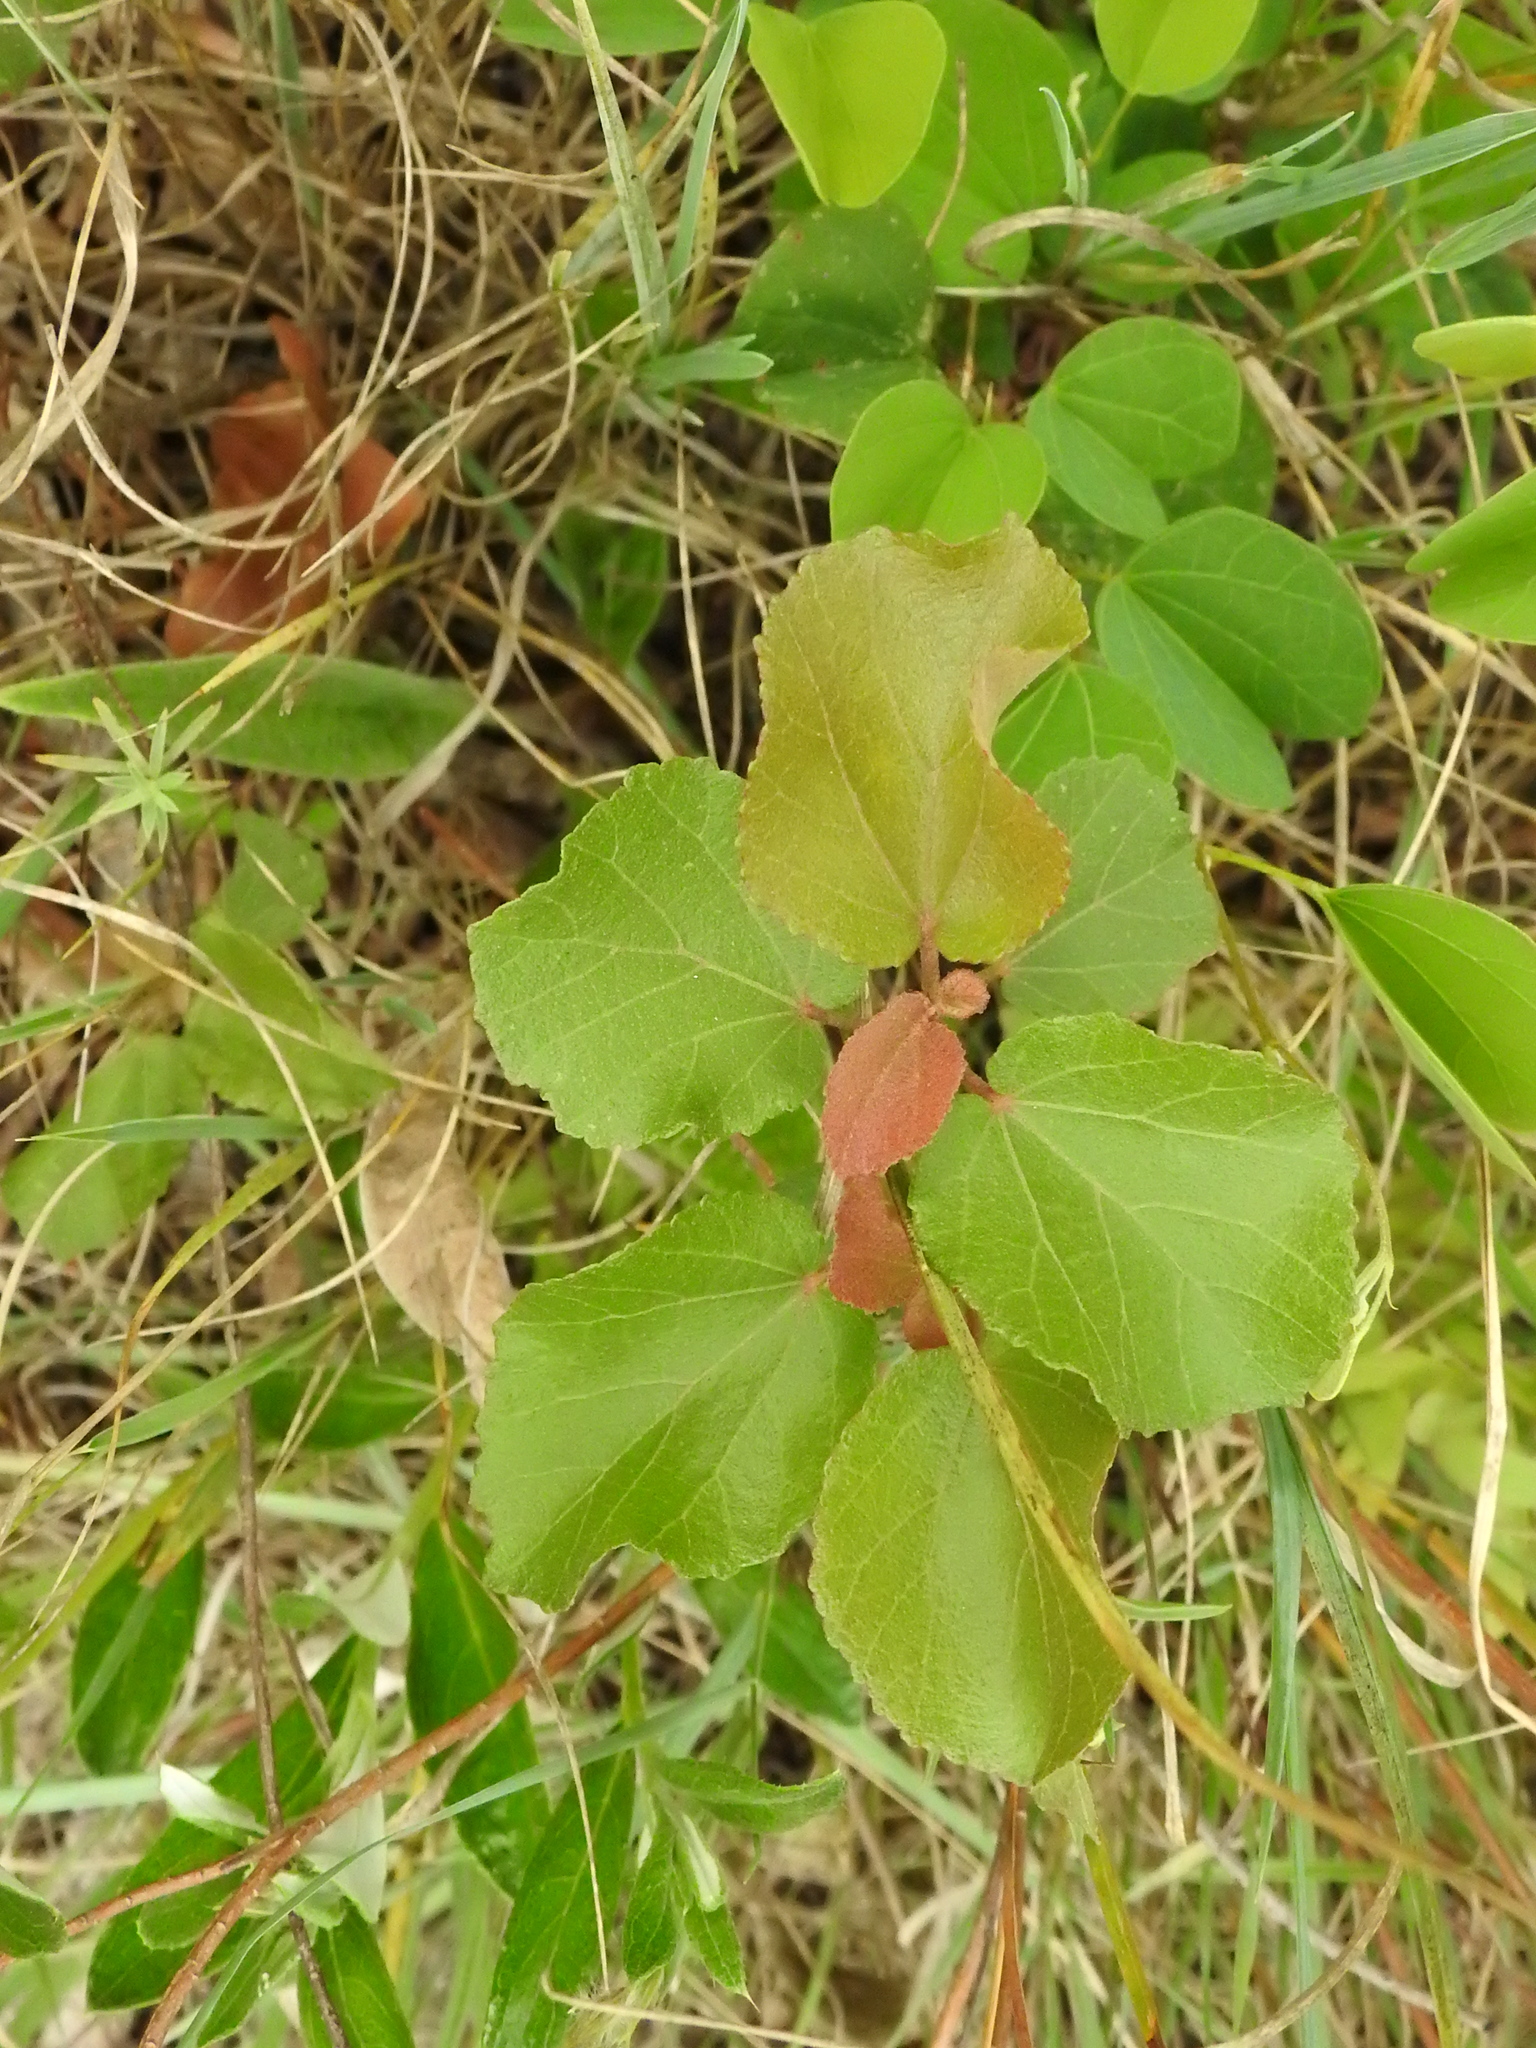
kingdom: Plantae
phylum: Tracheophyta
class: Magnoliopsida
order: Malvales
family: Malvaceae
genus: Dombeya
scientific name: Dombeya rotundifolia
